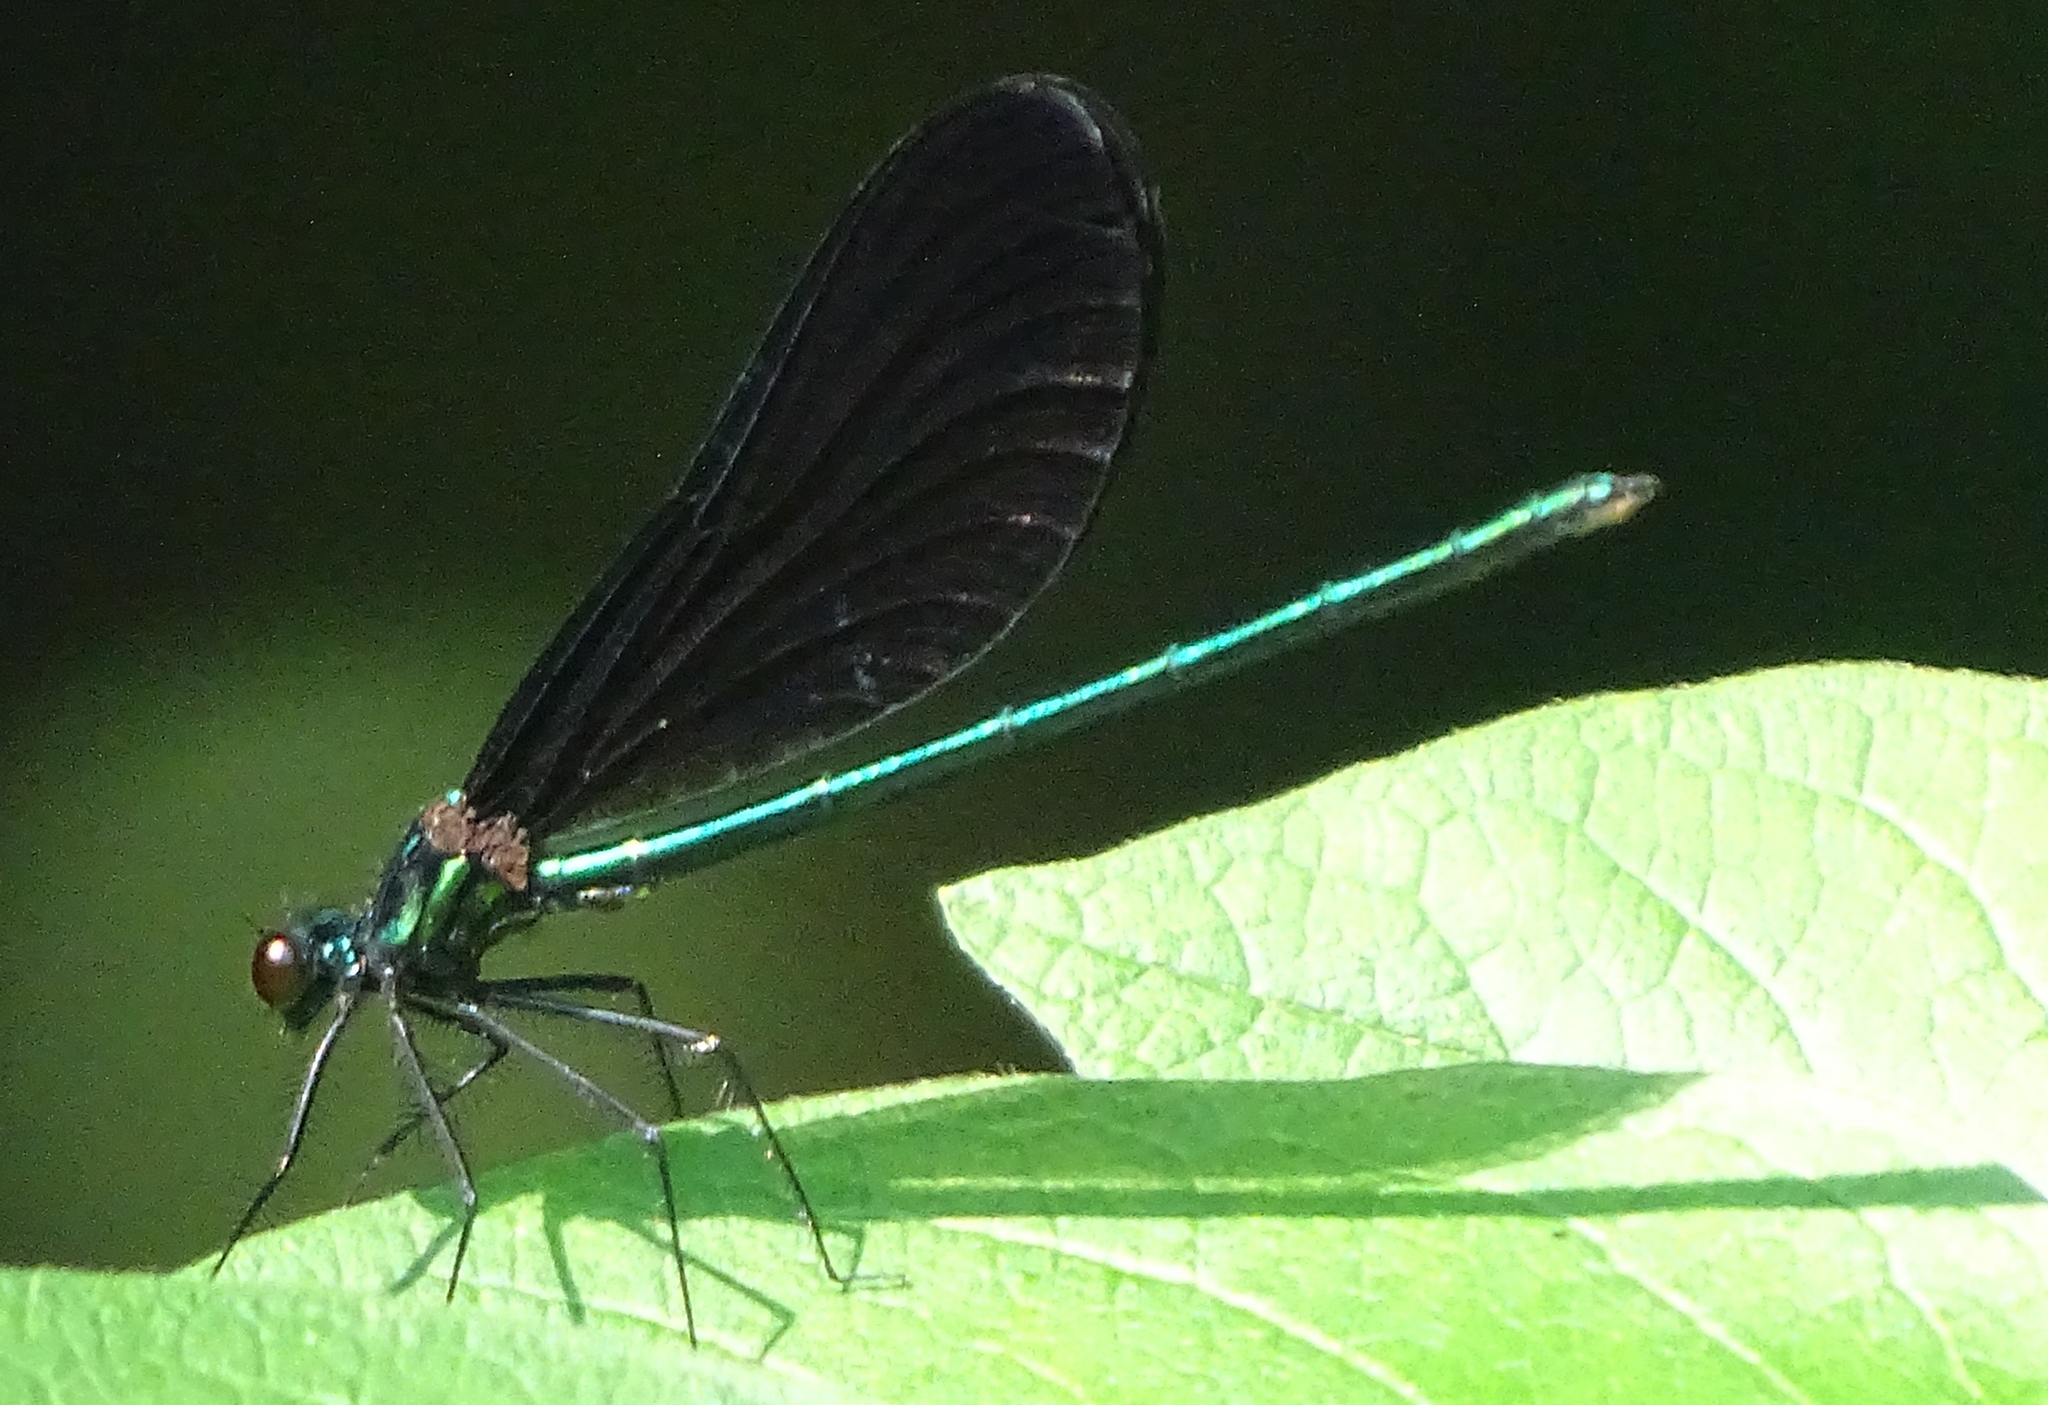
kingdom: Animalia
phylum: Arthropoda
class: Insecta
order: Odonata
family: Calopterygidae
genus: Calopteryx
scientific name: Calopteryx maculata
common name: Ebony jewelwing
